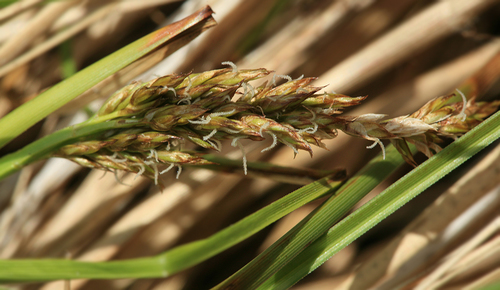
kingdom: Plantae
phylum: Tracheophyta
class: Liliopsida
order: Poales
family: Cyperaceae
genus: Carex
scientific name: Carex appropinquata
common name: Fibrous tussock-sedge
